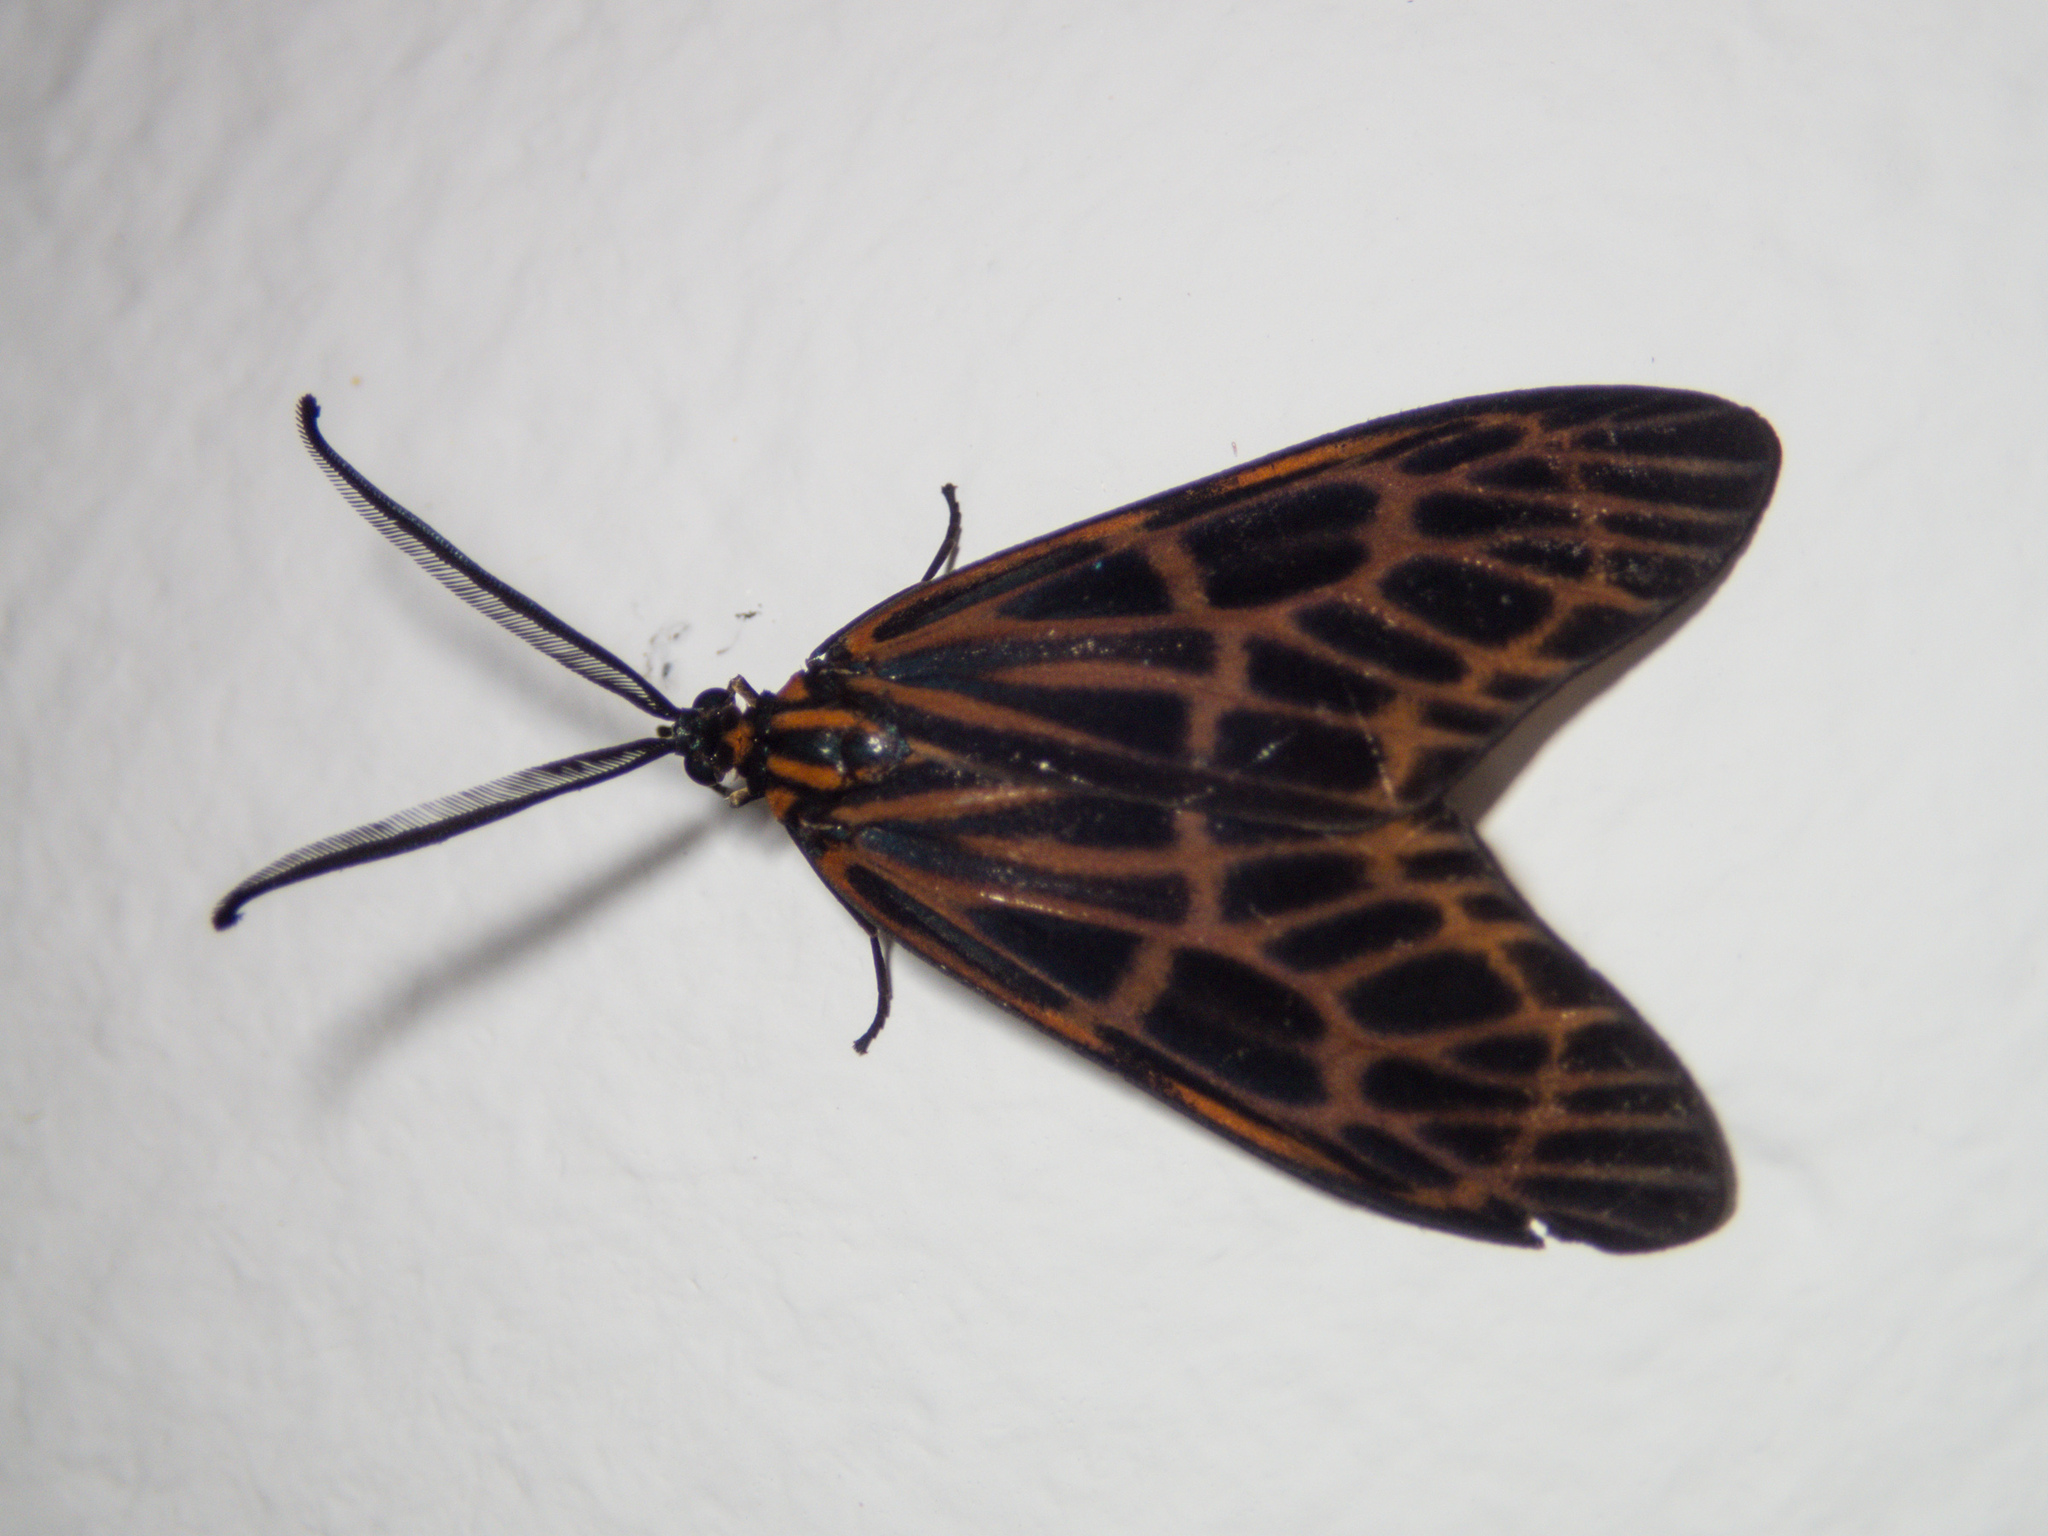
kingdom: Animalia
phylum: Arthropoda
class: Insecta
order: Lepidoptera
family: Zygaenidae
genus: Prosopandrophila
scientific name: Prosopandrophila distincta
